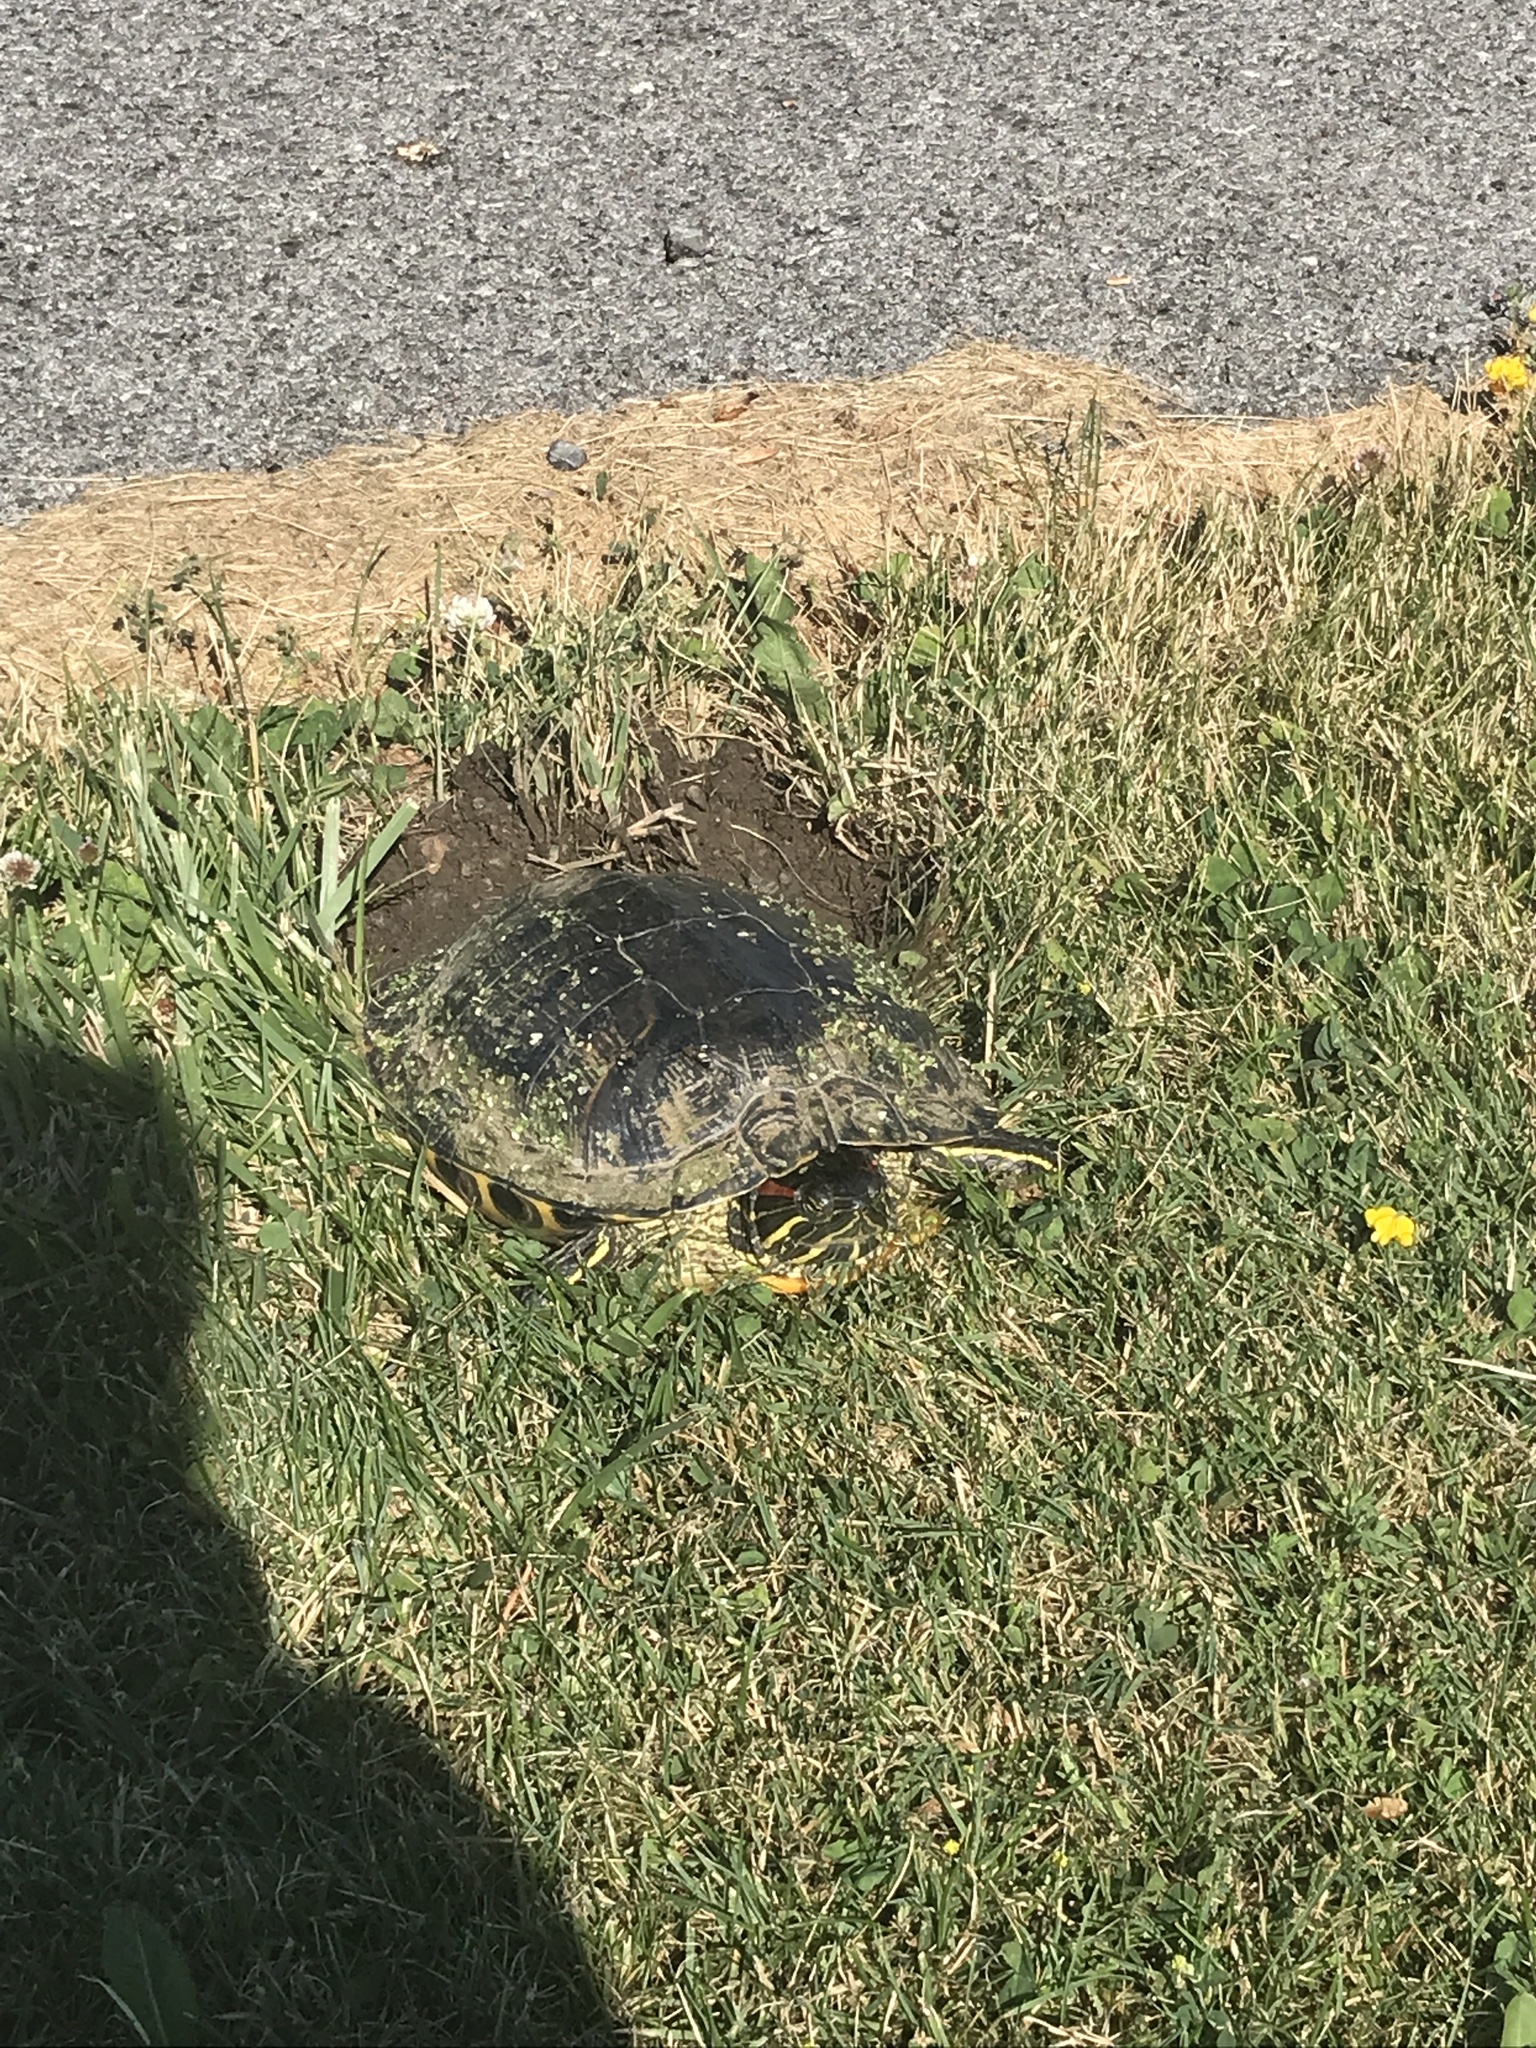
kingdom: Animalia
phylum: Chordata
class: Testudines
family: Emydidae
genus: Trachemys
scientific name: Trachemys scripta
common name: Slider
